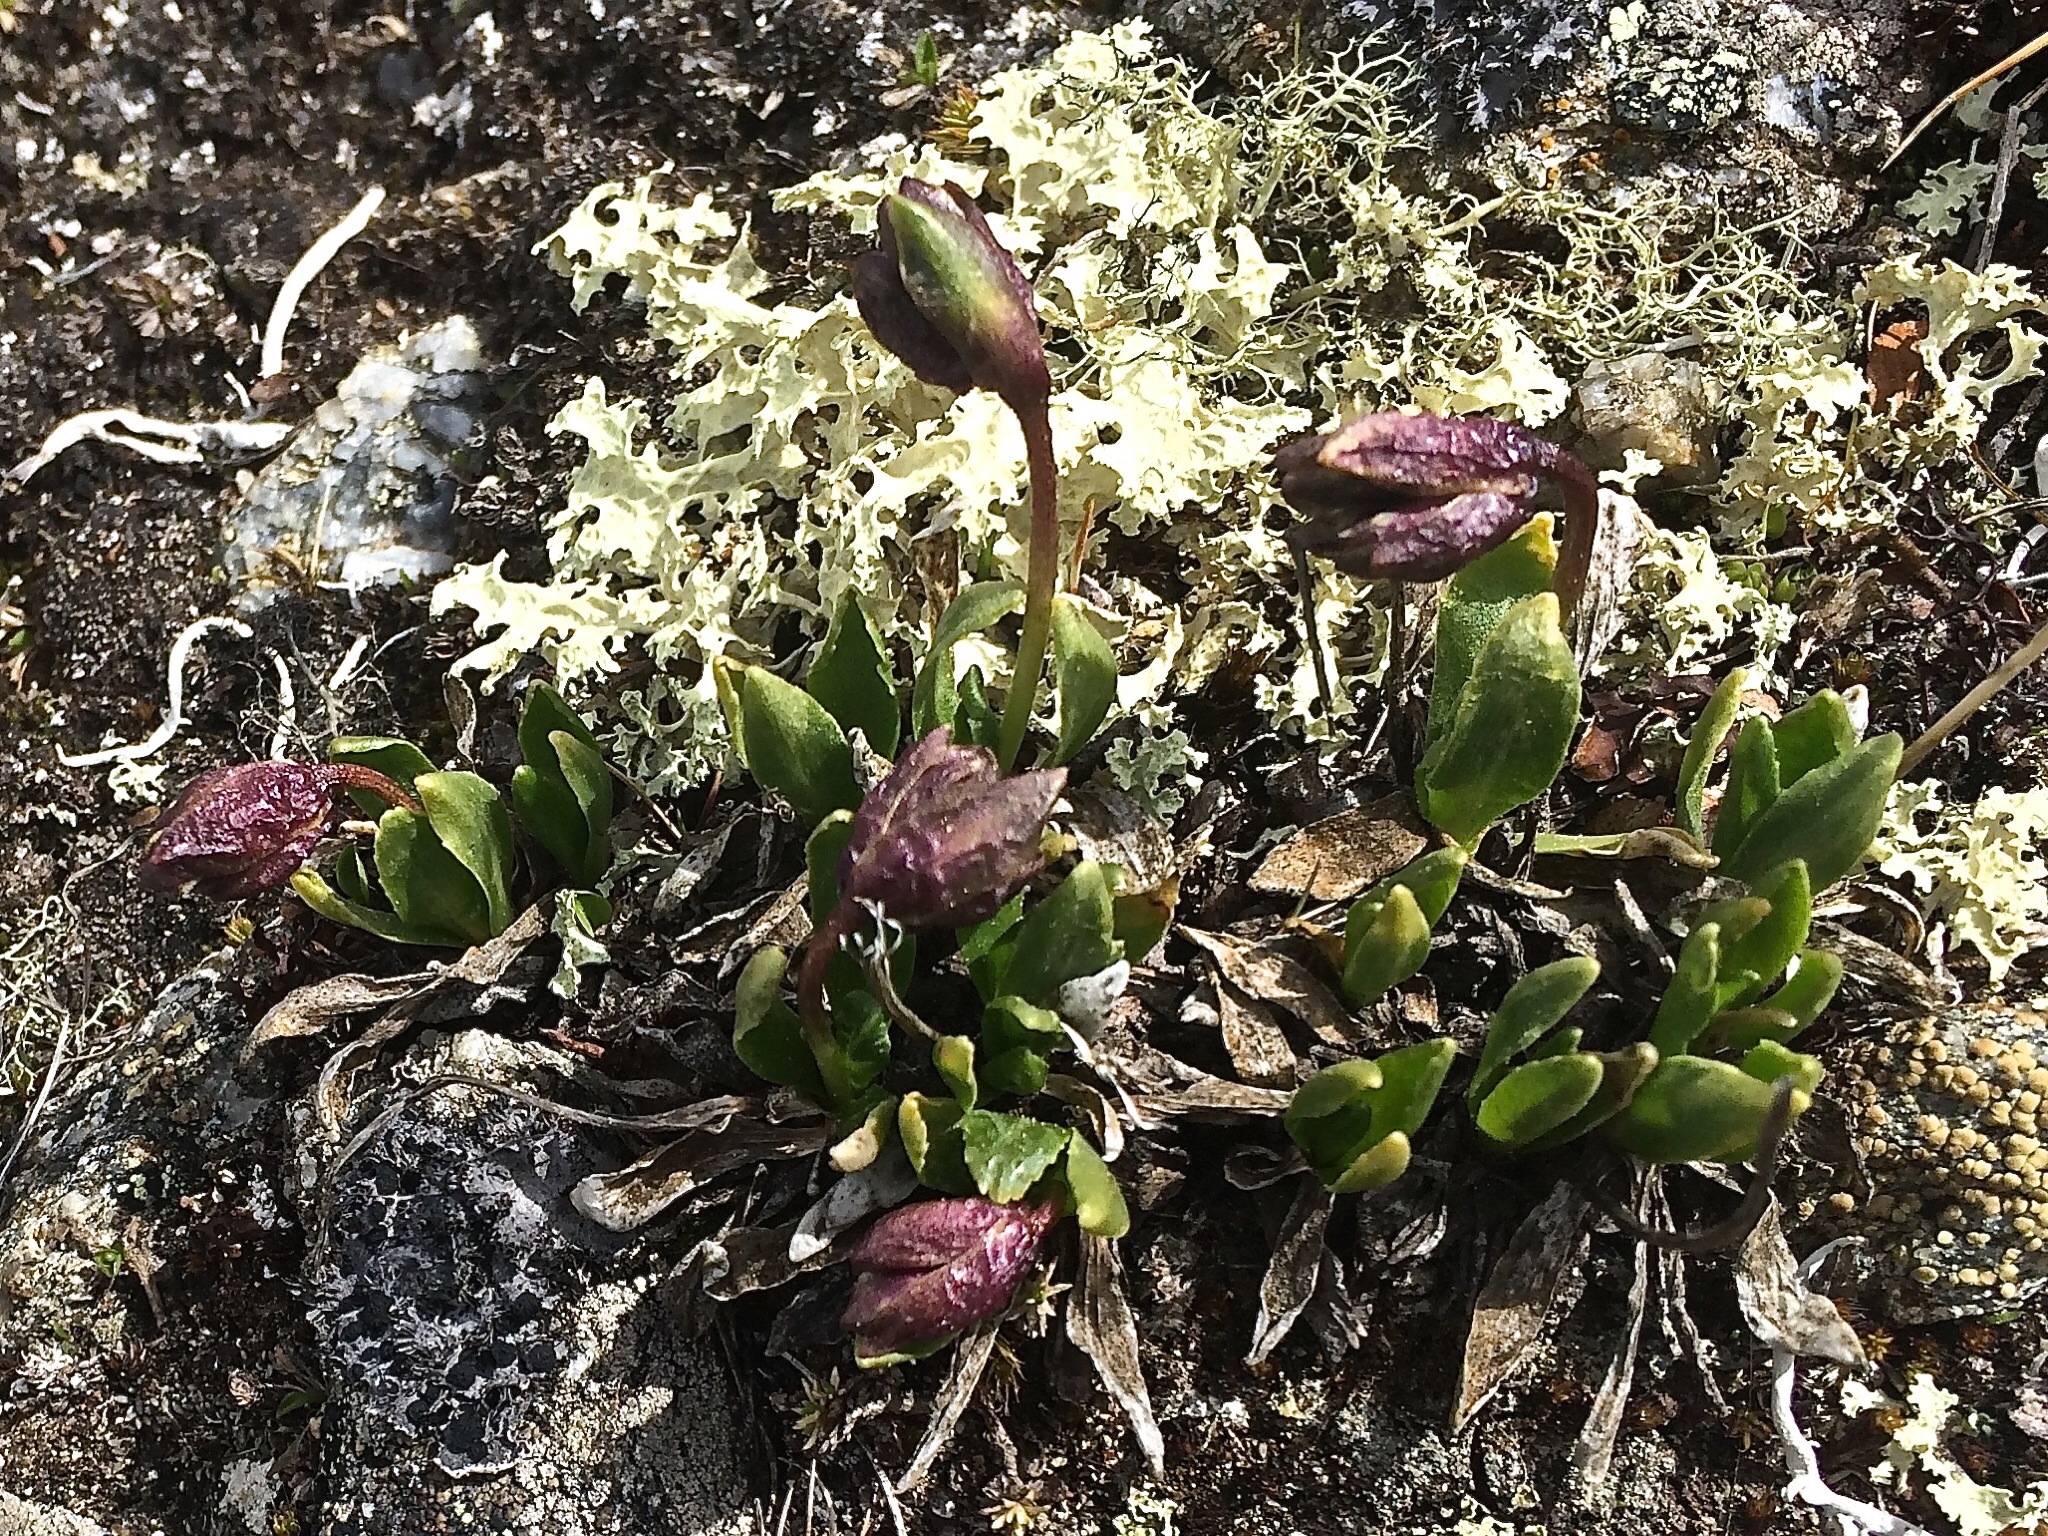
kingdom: Plantae
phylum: Tracheophyta
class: Magnoliopsida
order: Ericales
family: Primulaceae
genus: Primula
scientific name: Primula glutinosa
